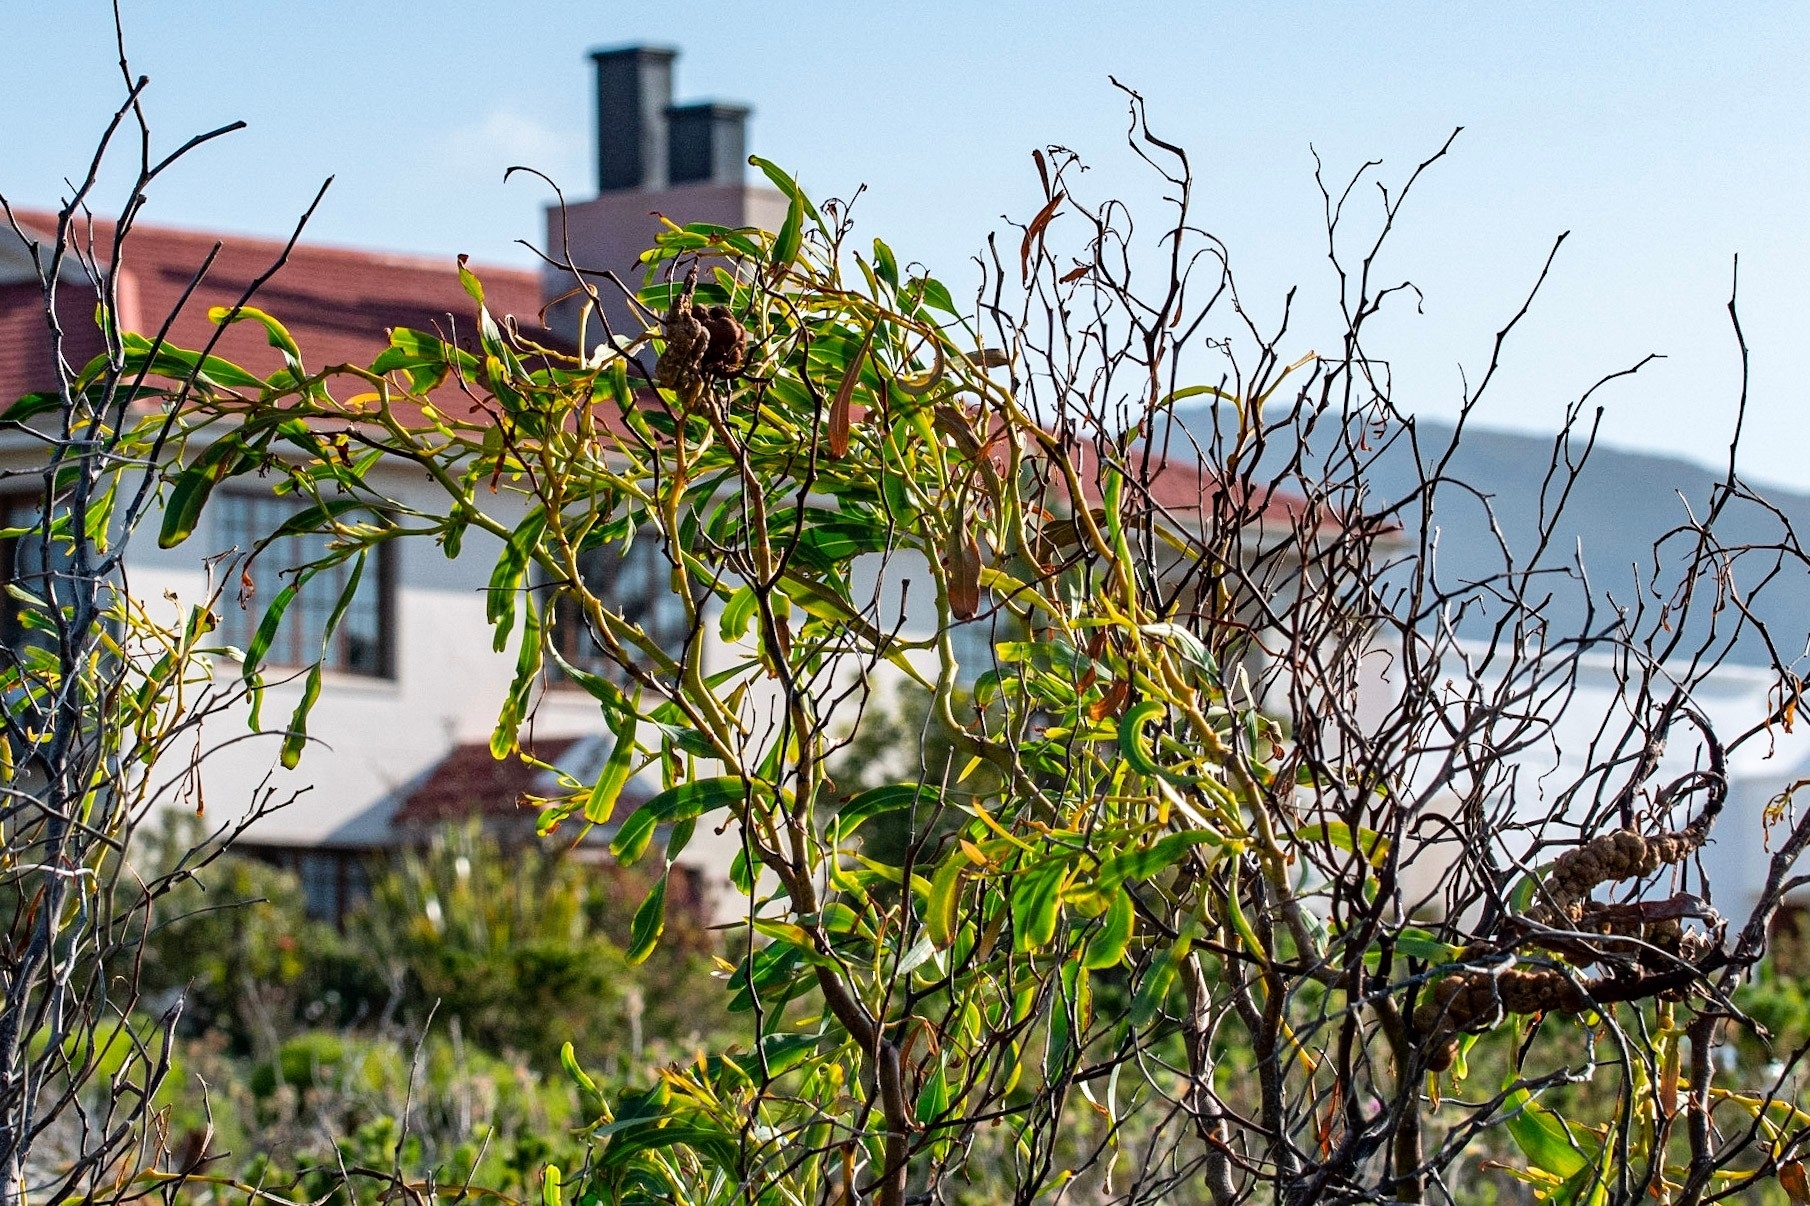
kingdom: Plantae
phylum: Tracheophyta
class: Magnoliopsida
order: Fabales
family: Fabaceae
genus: Acacia
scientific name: Acacia saligna
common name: Orange wattle
